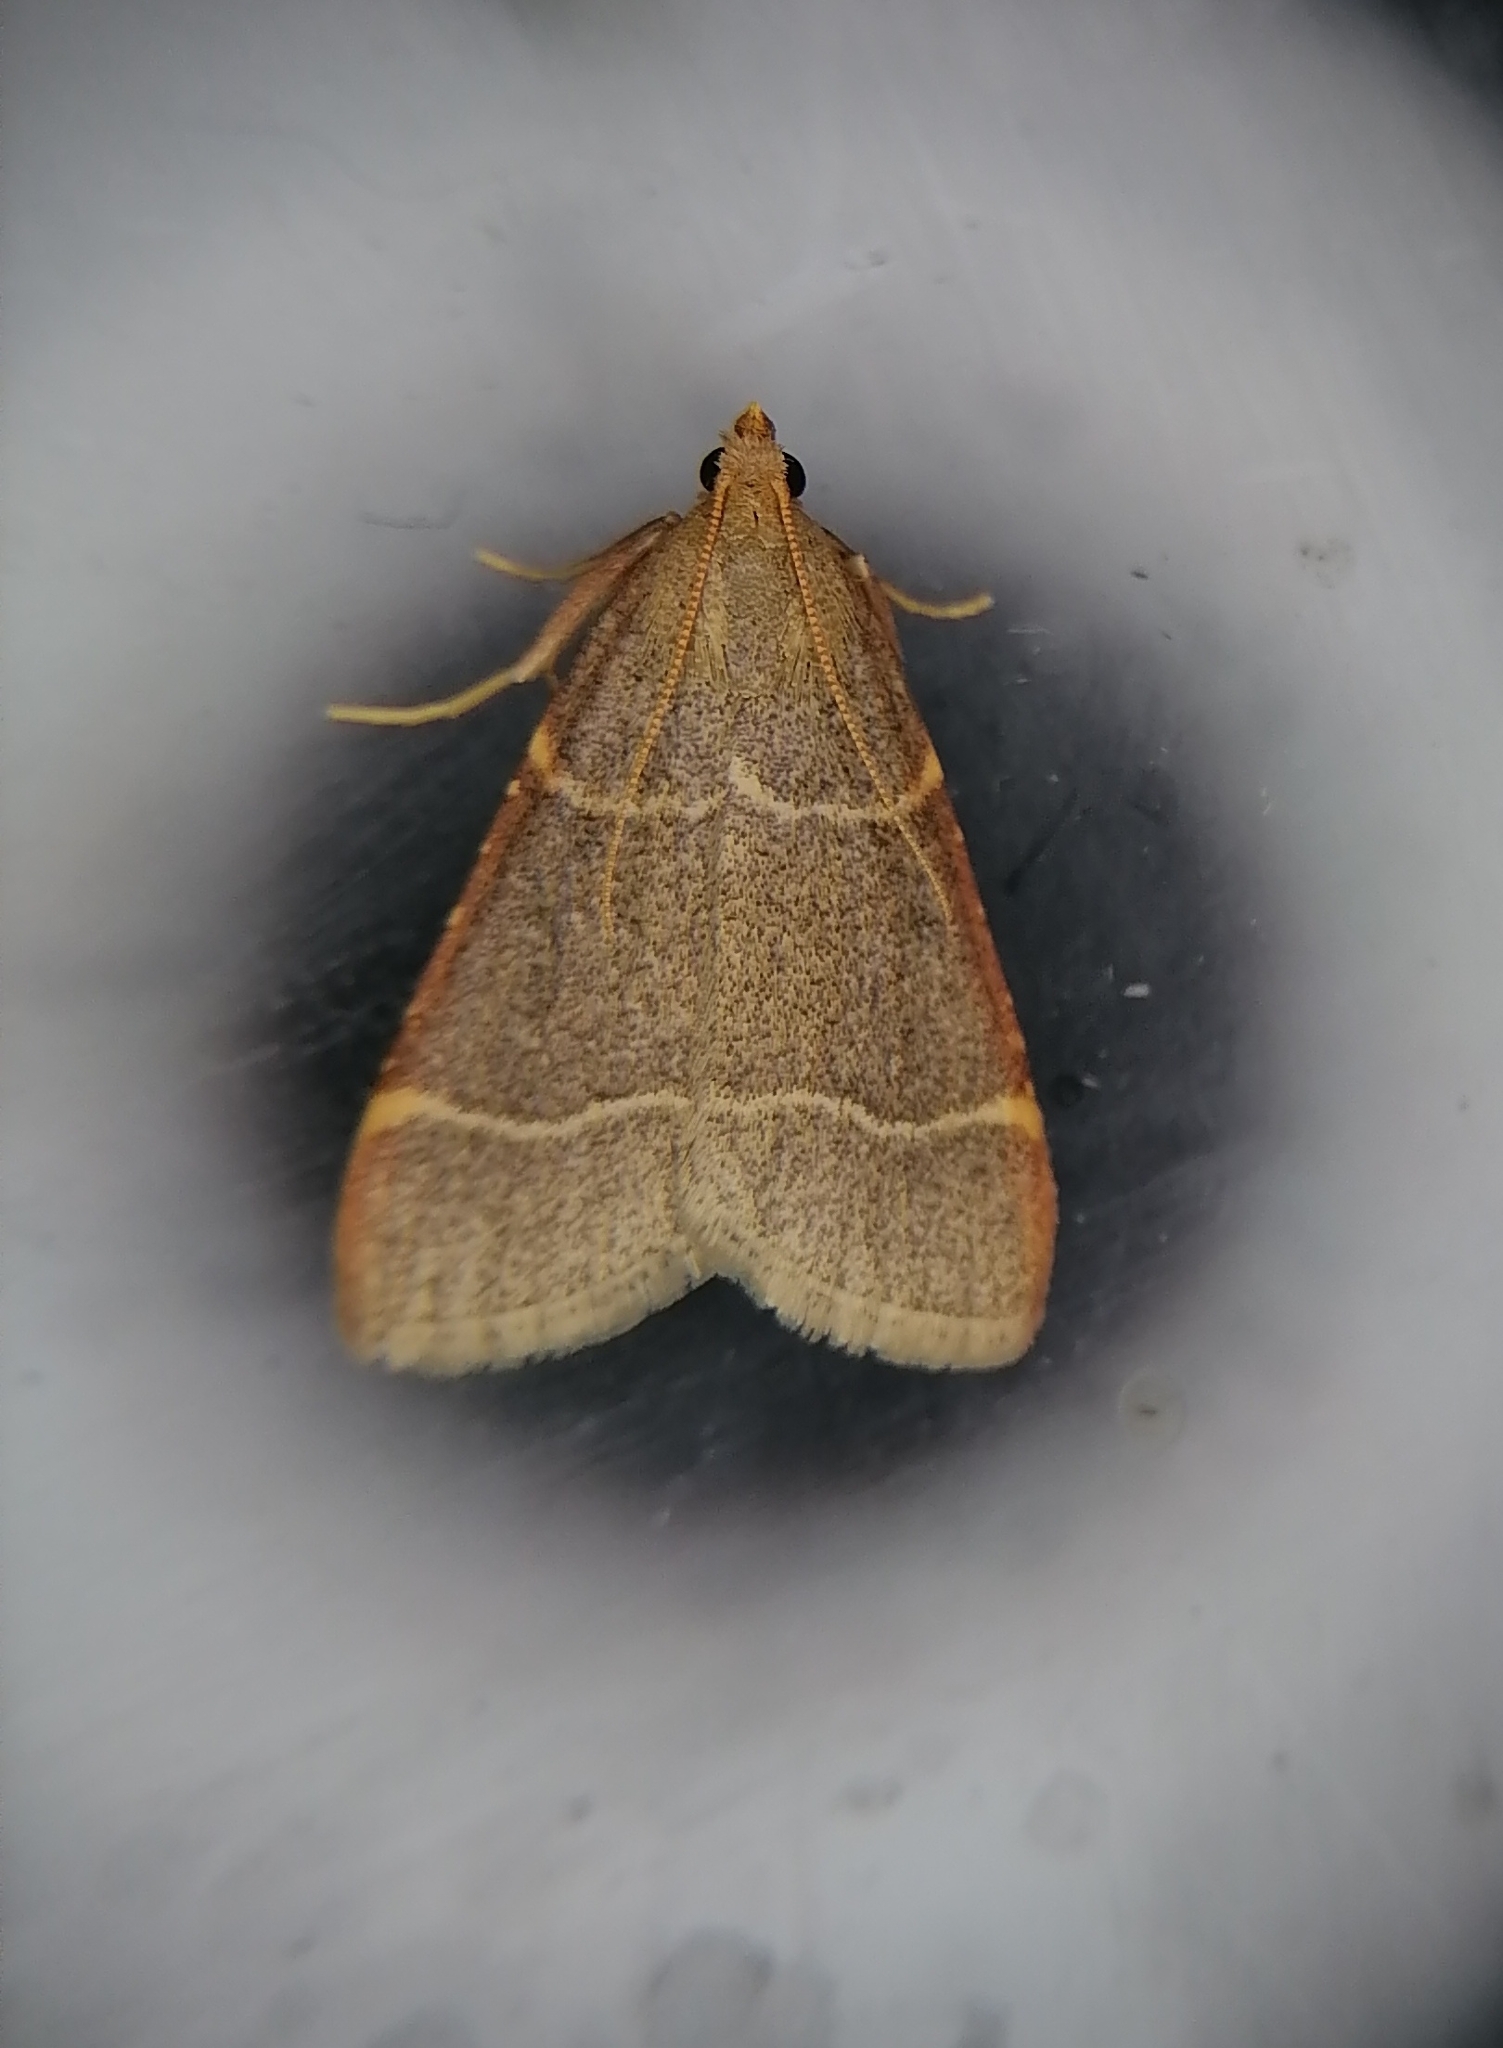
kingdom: Animalia
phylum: Arthropoda
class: Insecta
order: Lepidoptera
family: Pyralidae
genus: Hypsopygia
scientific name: Hypsopygia glaucinalis
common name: Double-striped tabby
